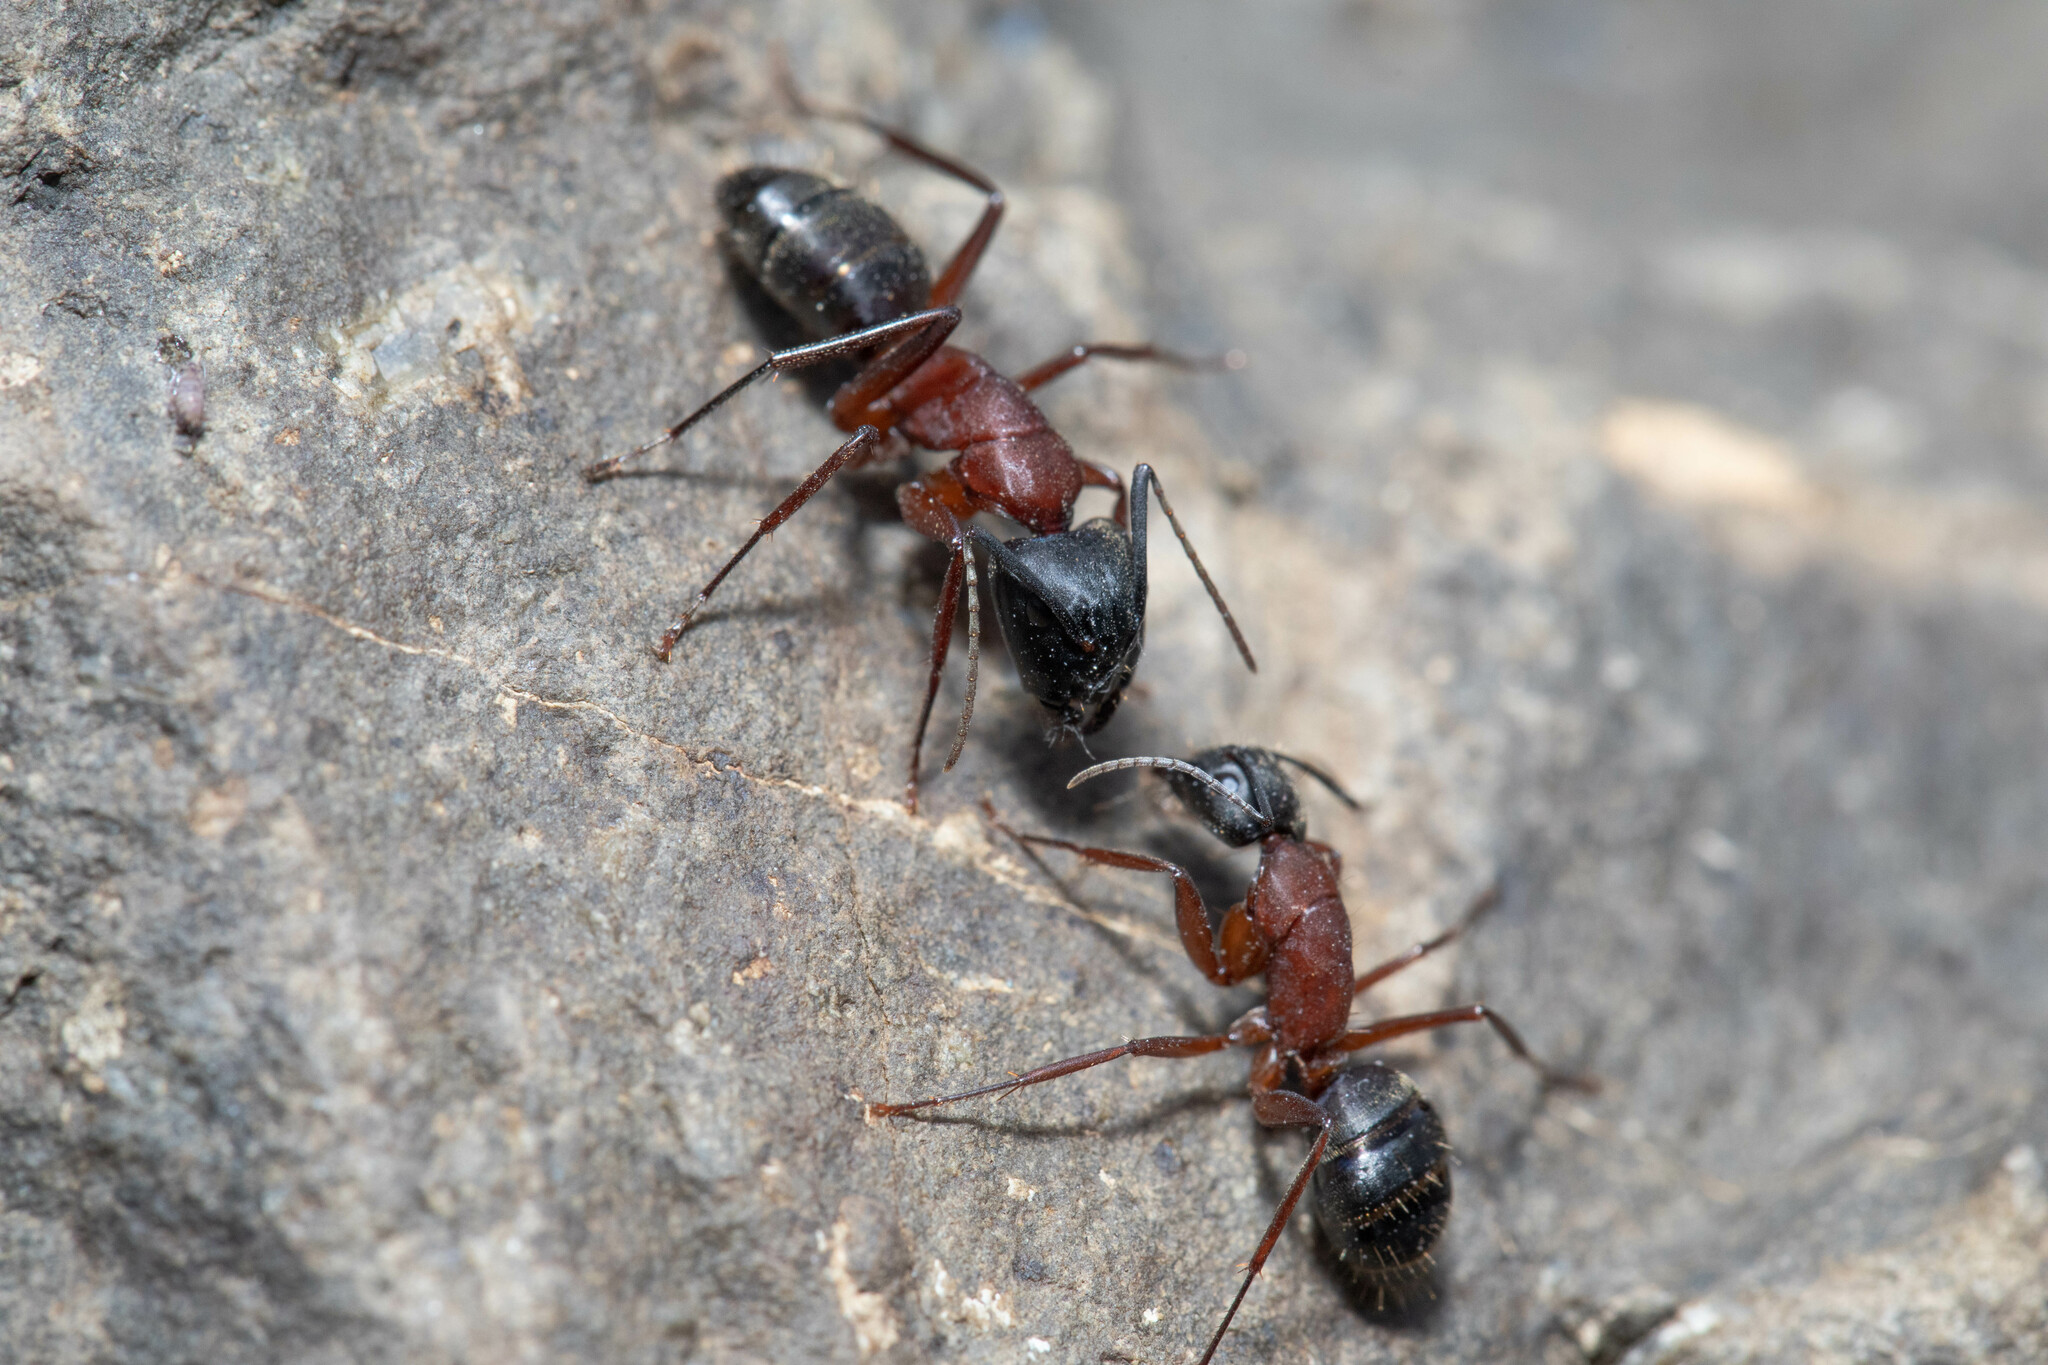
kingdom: Animalia
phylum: Arthropoda
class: Insecta
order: Hymenoptera
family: Formicidae
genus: Camponotus
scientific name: Camponotus vicinus
